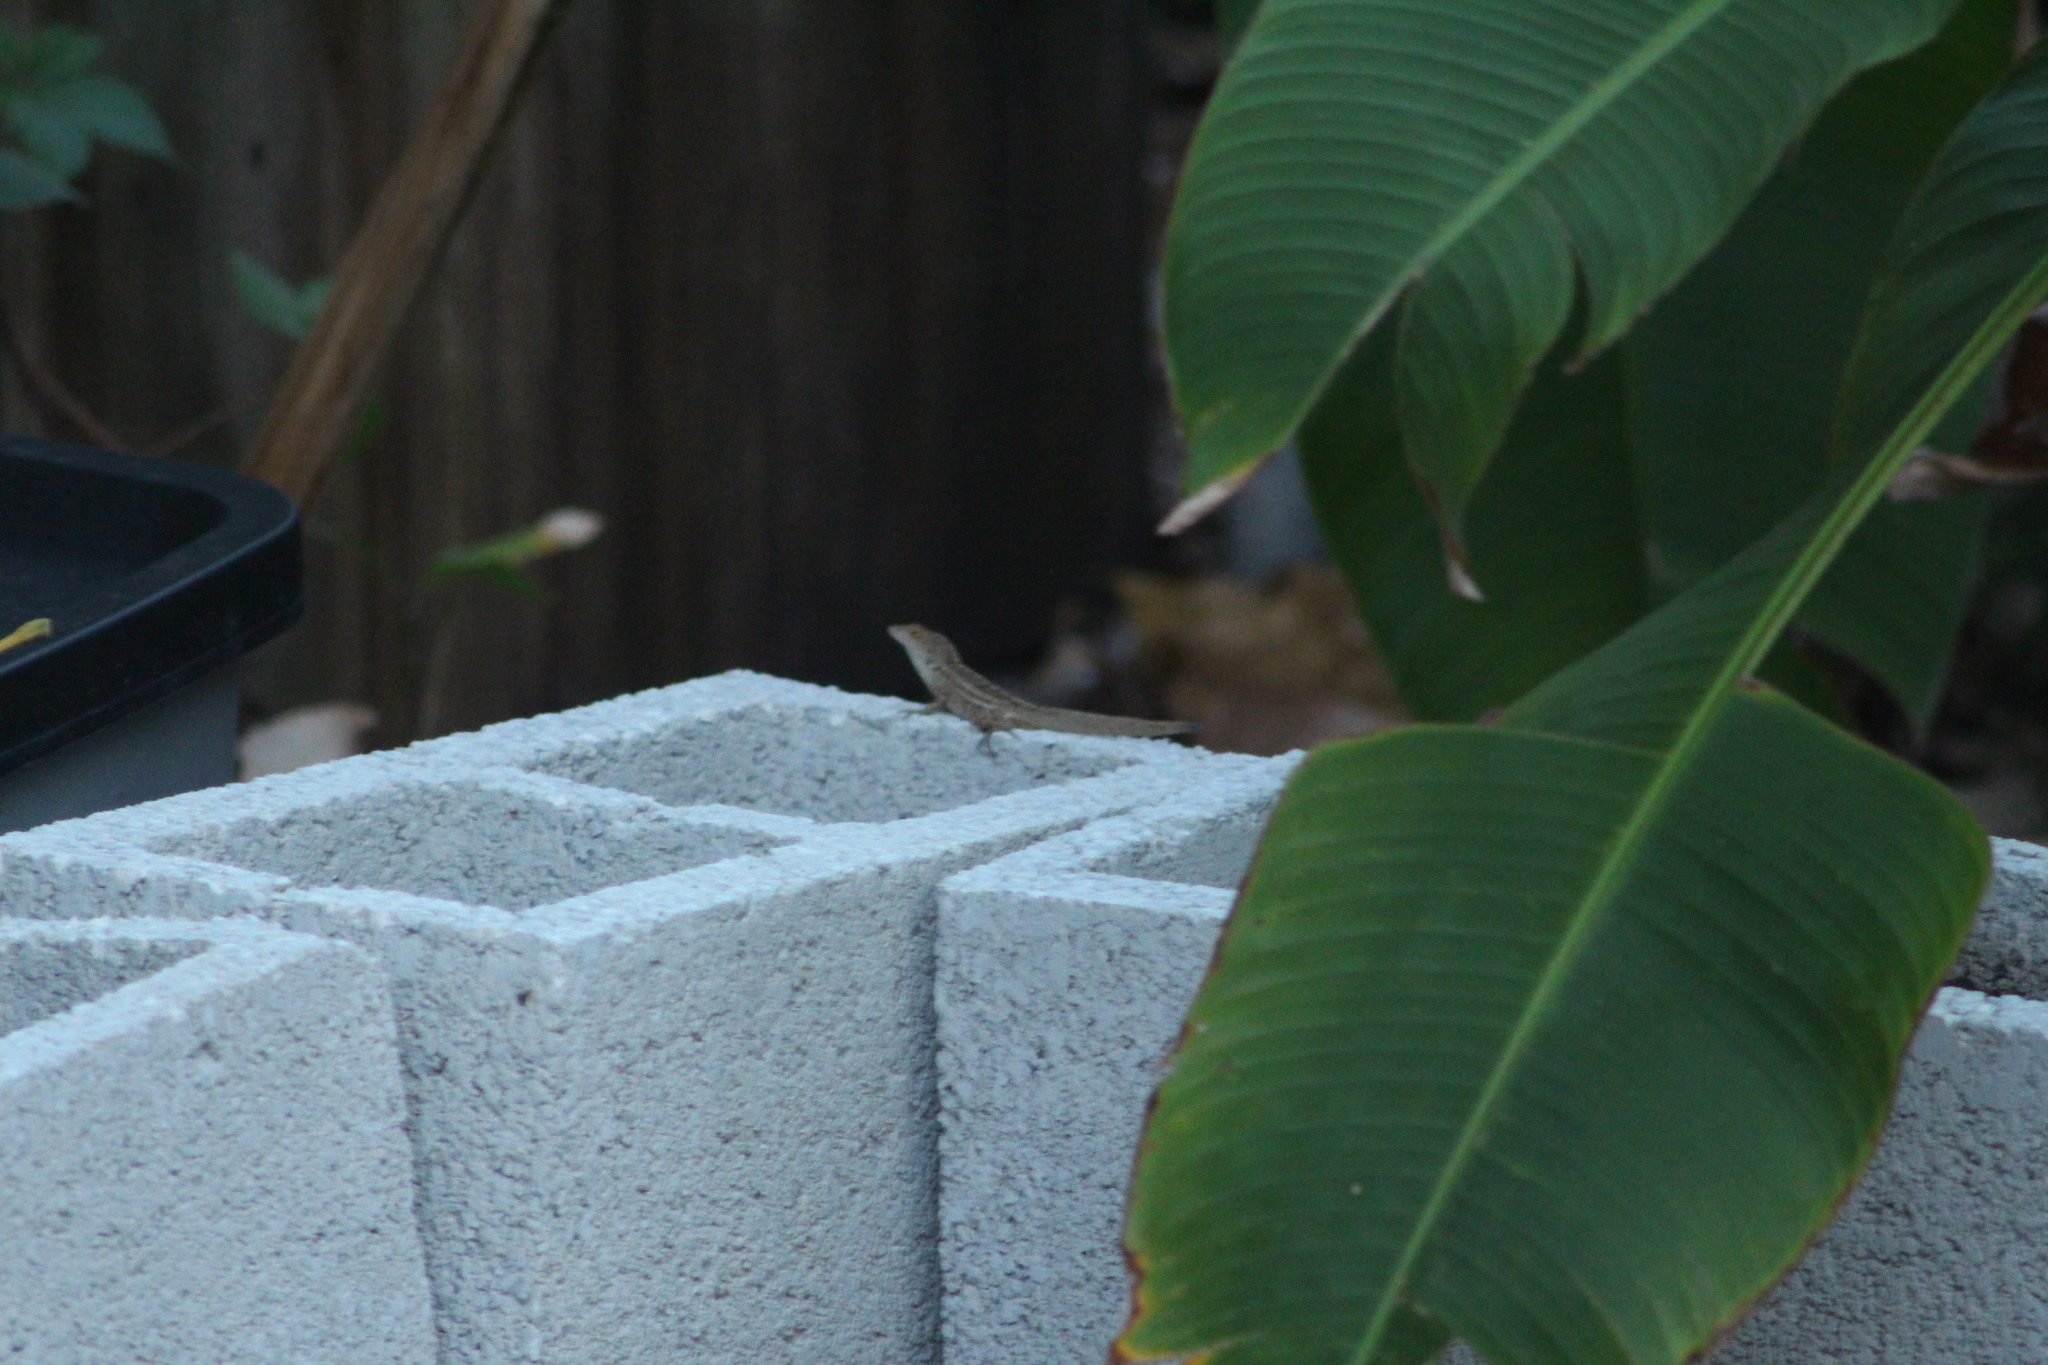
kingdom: Animalia
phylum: Chordata
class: Squamata
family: Dactyloidae
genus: Anolis
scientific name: Anolis sagrei
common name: Brown anole
